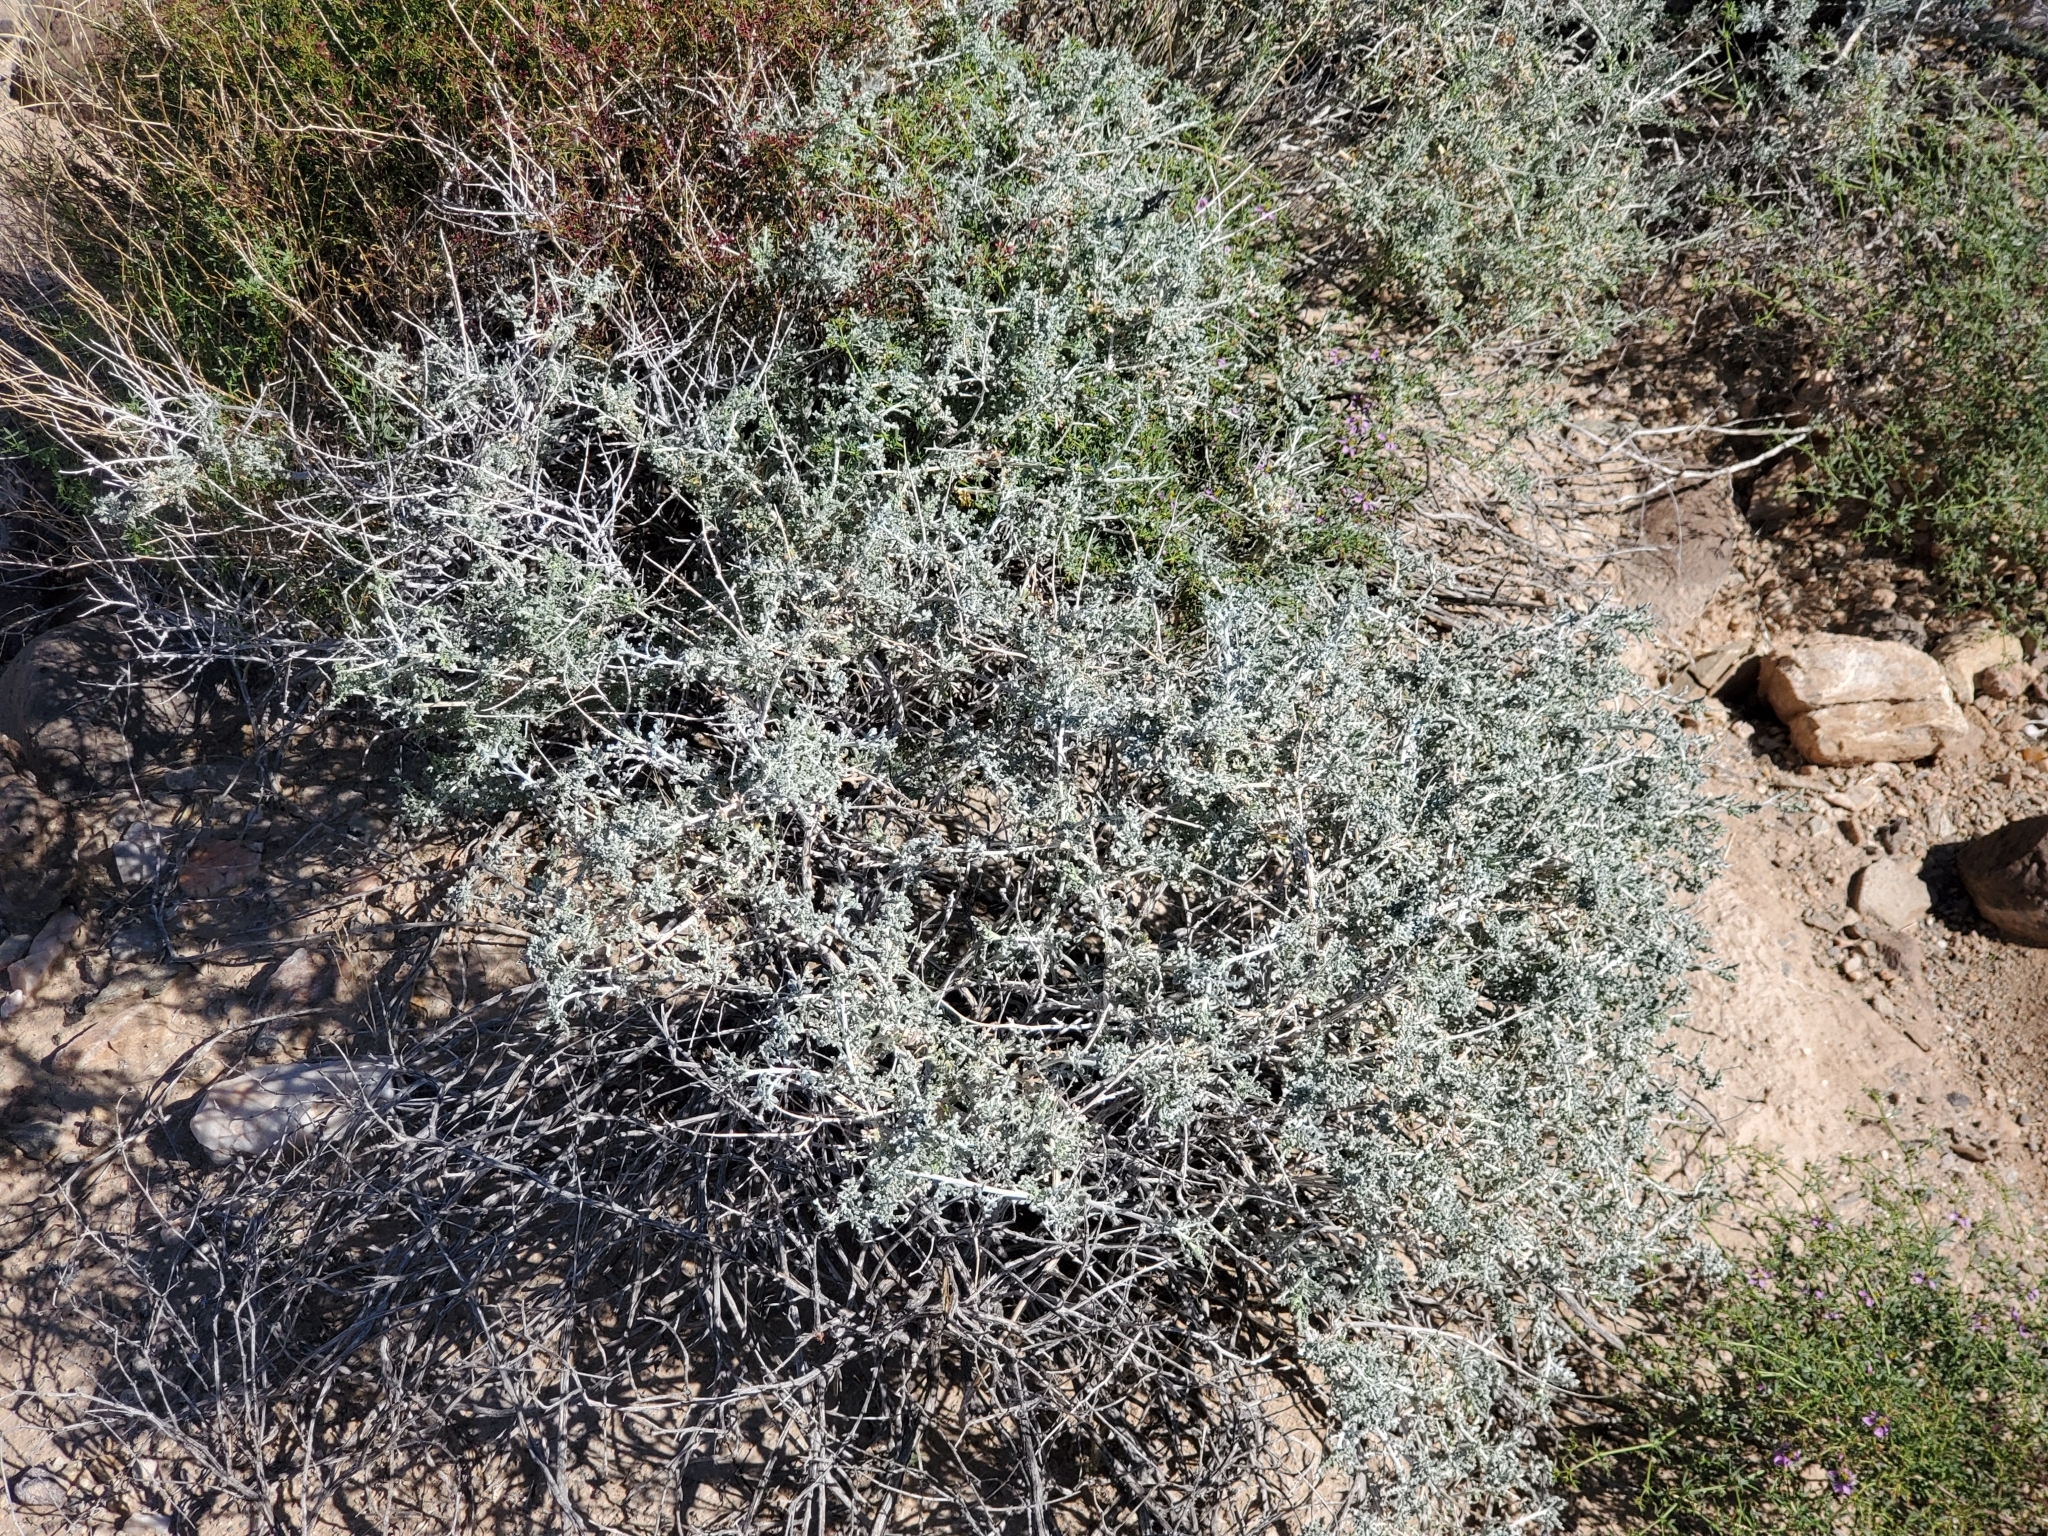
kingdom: Plantae
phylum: Tracheophyta
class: Magnoliopsida
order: Asterales
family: Asteraceae
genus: Ambrosia
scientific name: Ambrosia dumosa
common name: Bur-sage
